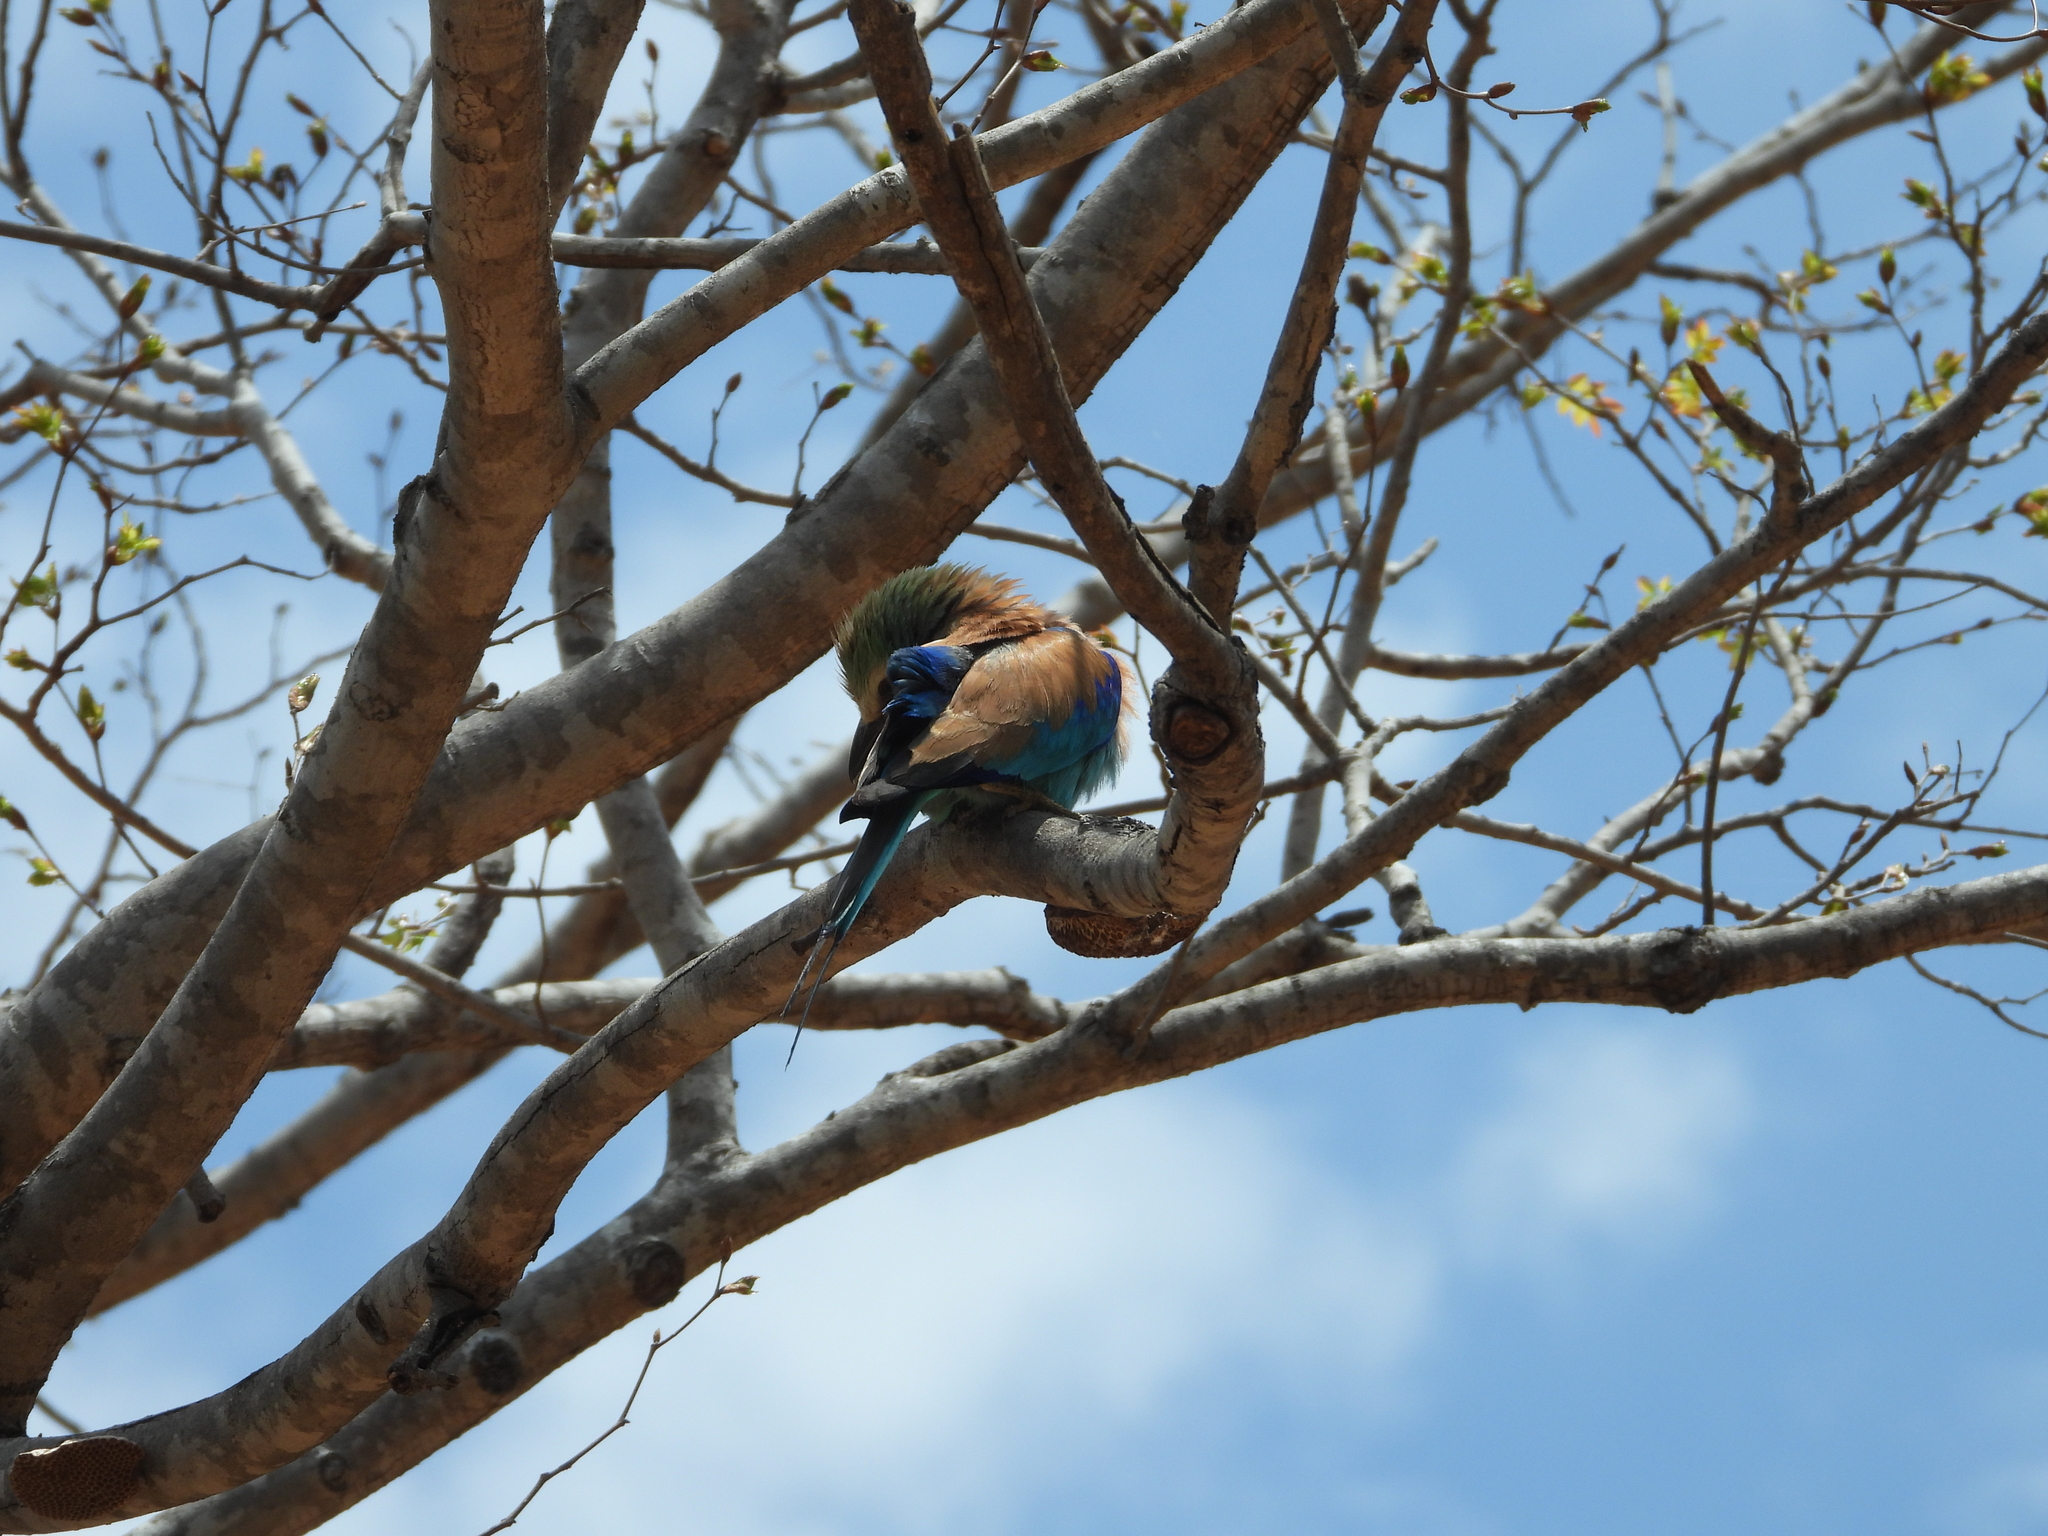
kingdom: Animalia
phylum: Chordata
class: Aves
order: Coraciiformes
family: Coraciidae
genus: Coracias
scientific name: Coracias caudatus
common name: Lilac-breasted roller
